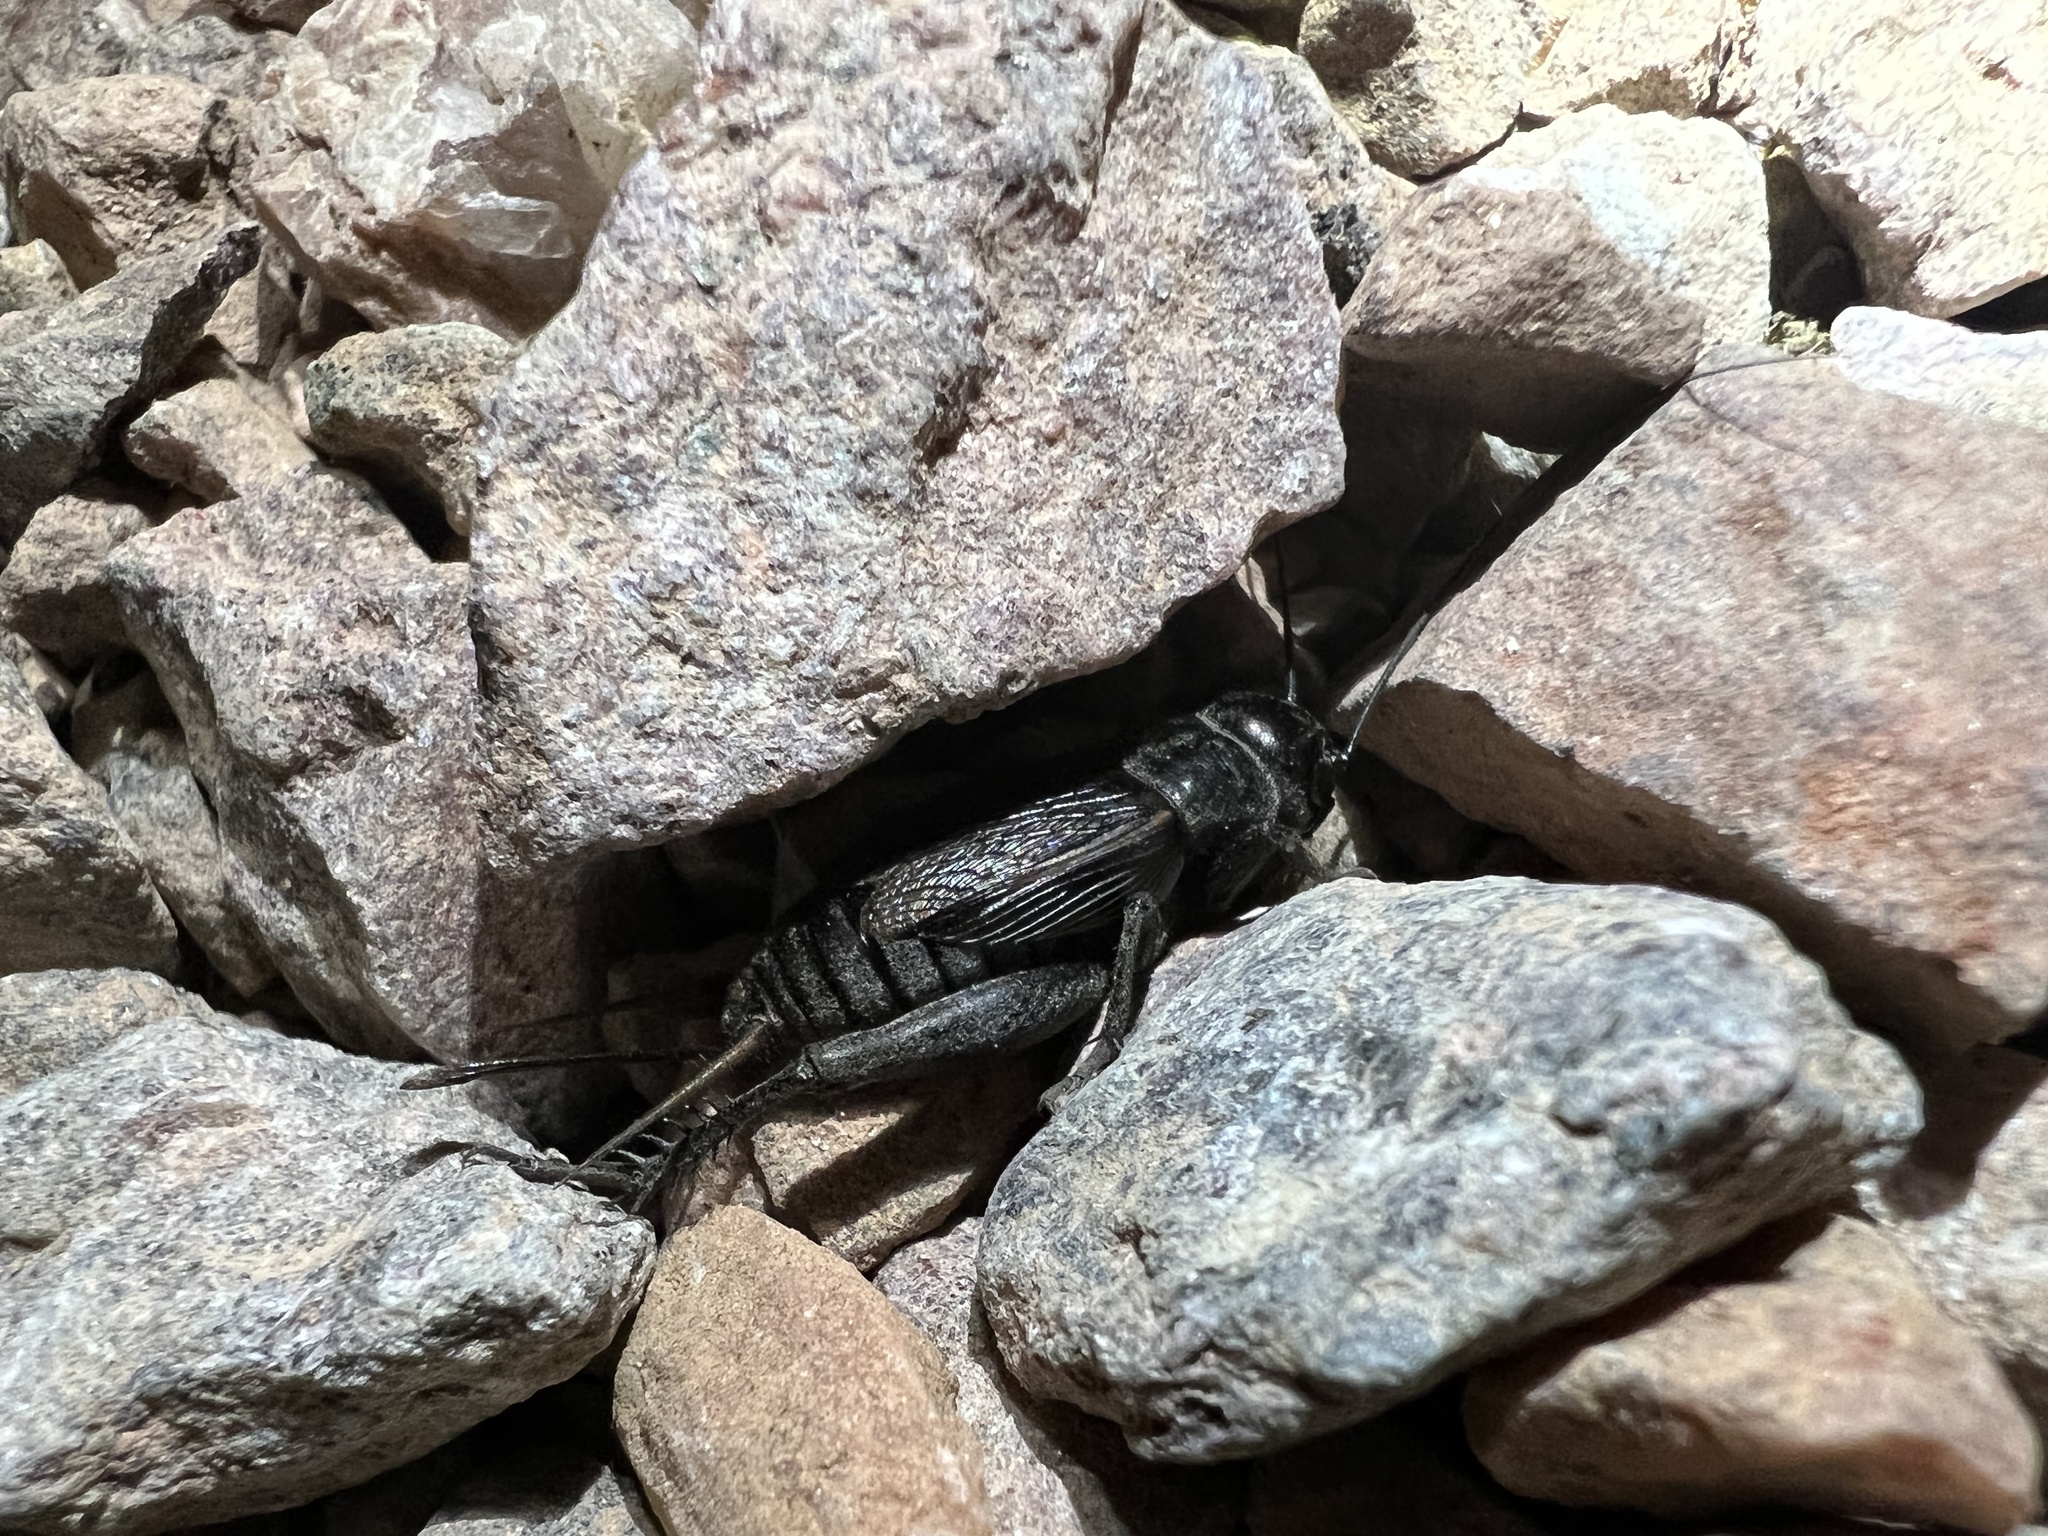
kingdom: Animalia
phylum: Arthropoda
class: Insecta
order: Orthoptera
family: Gryllidae
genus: Gryllus
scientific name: Gryllus veletis
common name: Spring field cricket
